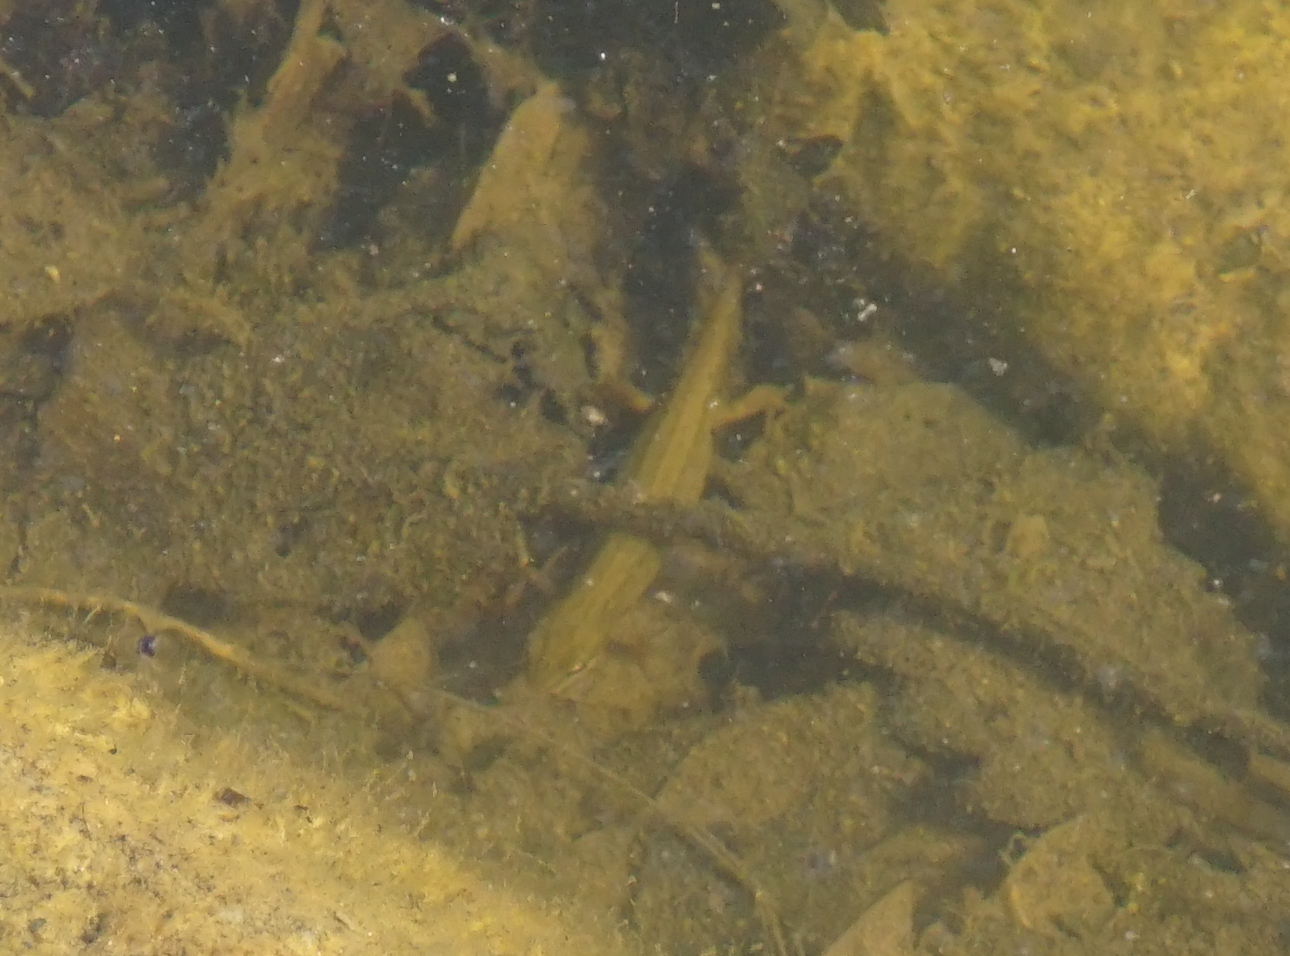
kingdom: Animalia
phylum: Chordata
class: Amphibia
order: Caudata
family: Salamandridae
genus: Lissotriton
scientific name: Lissotriton vulgaris
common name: Smooth newt
